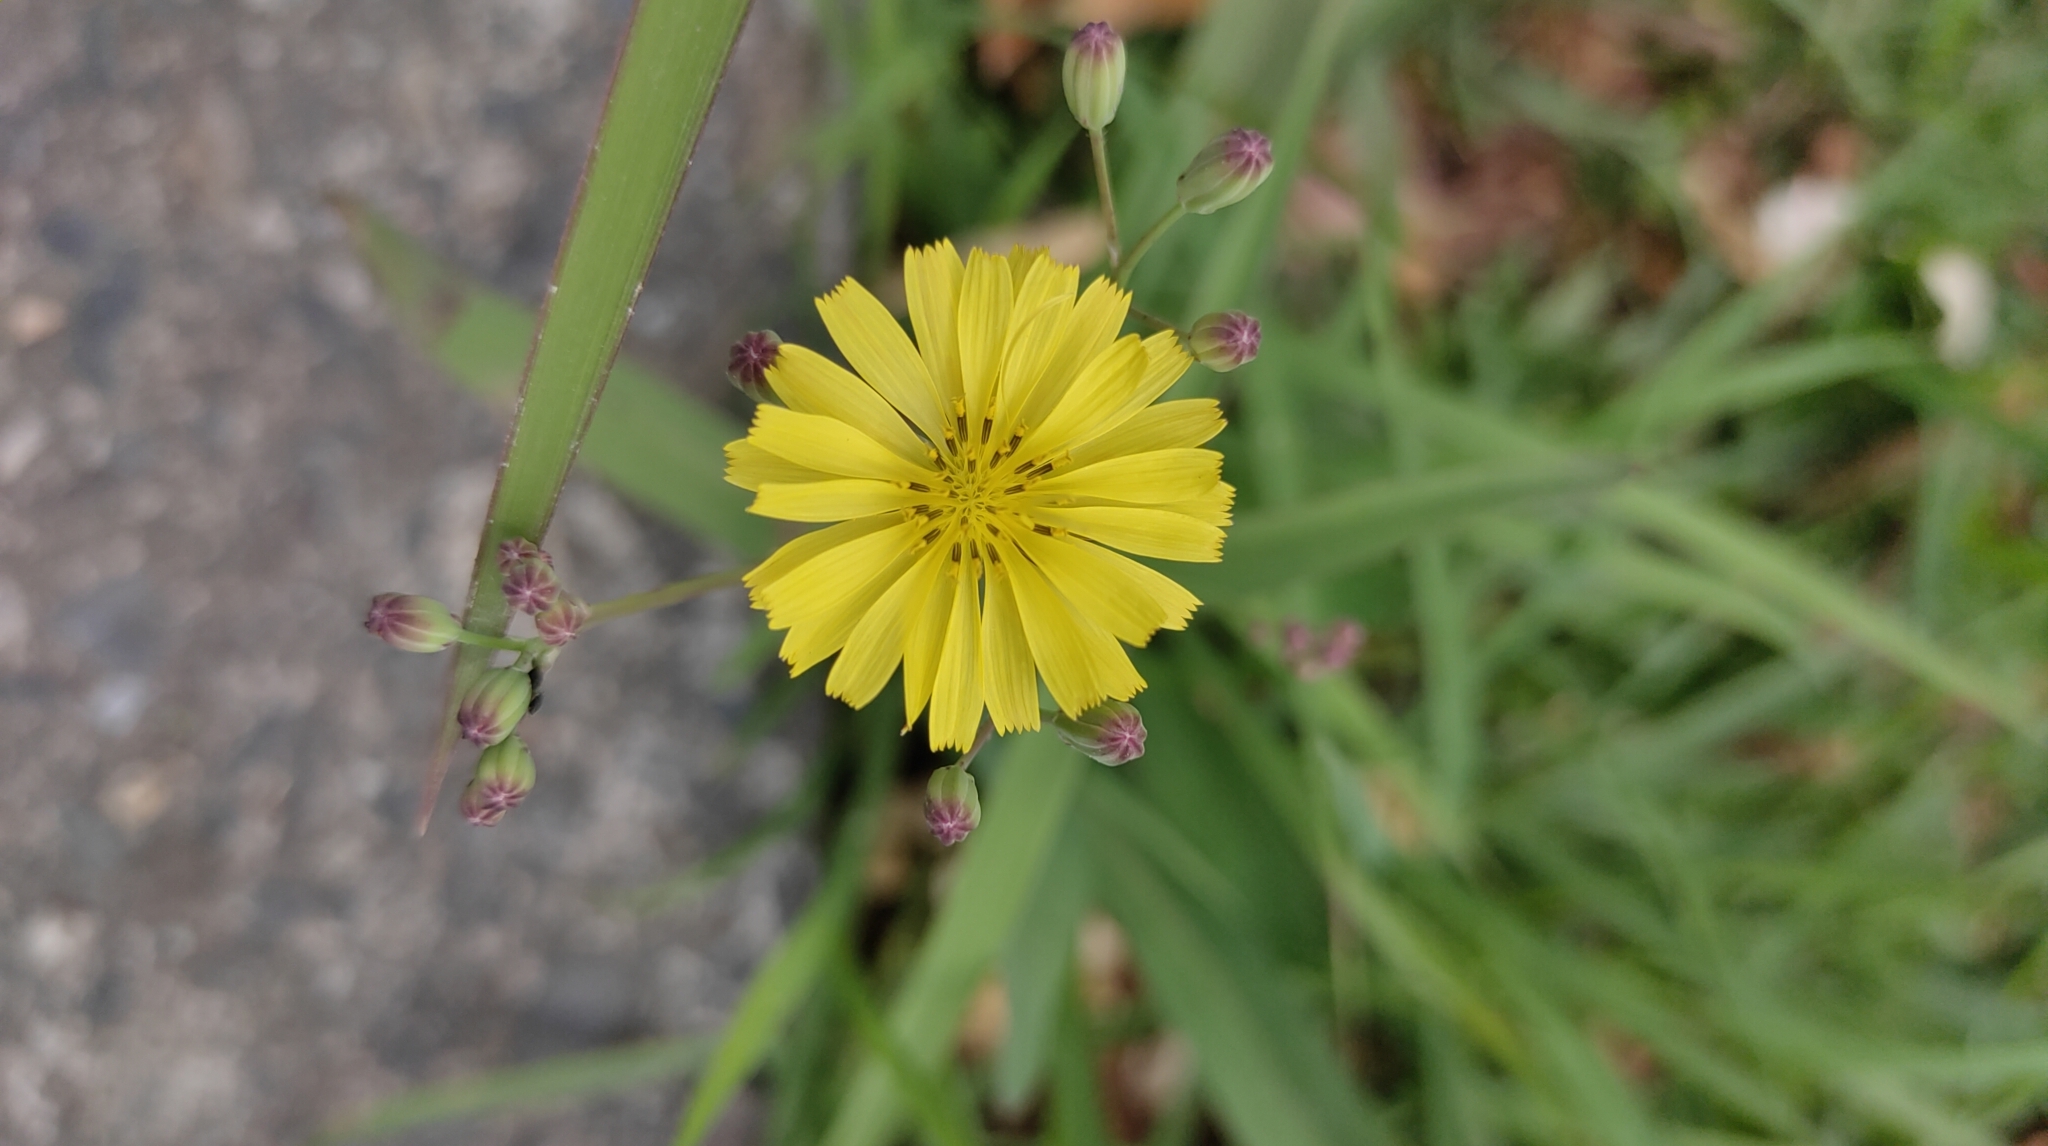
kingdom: Plantae
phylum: Tracheophyta
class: Magnoliopsida
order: Asterales
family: Asteraceae
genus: Ixeris
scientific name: Ixeris chinensis
